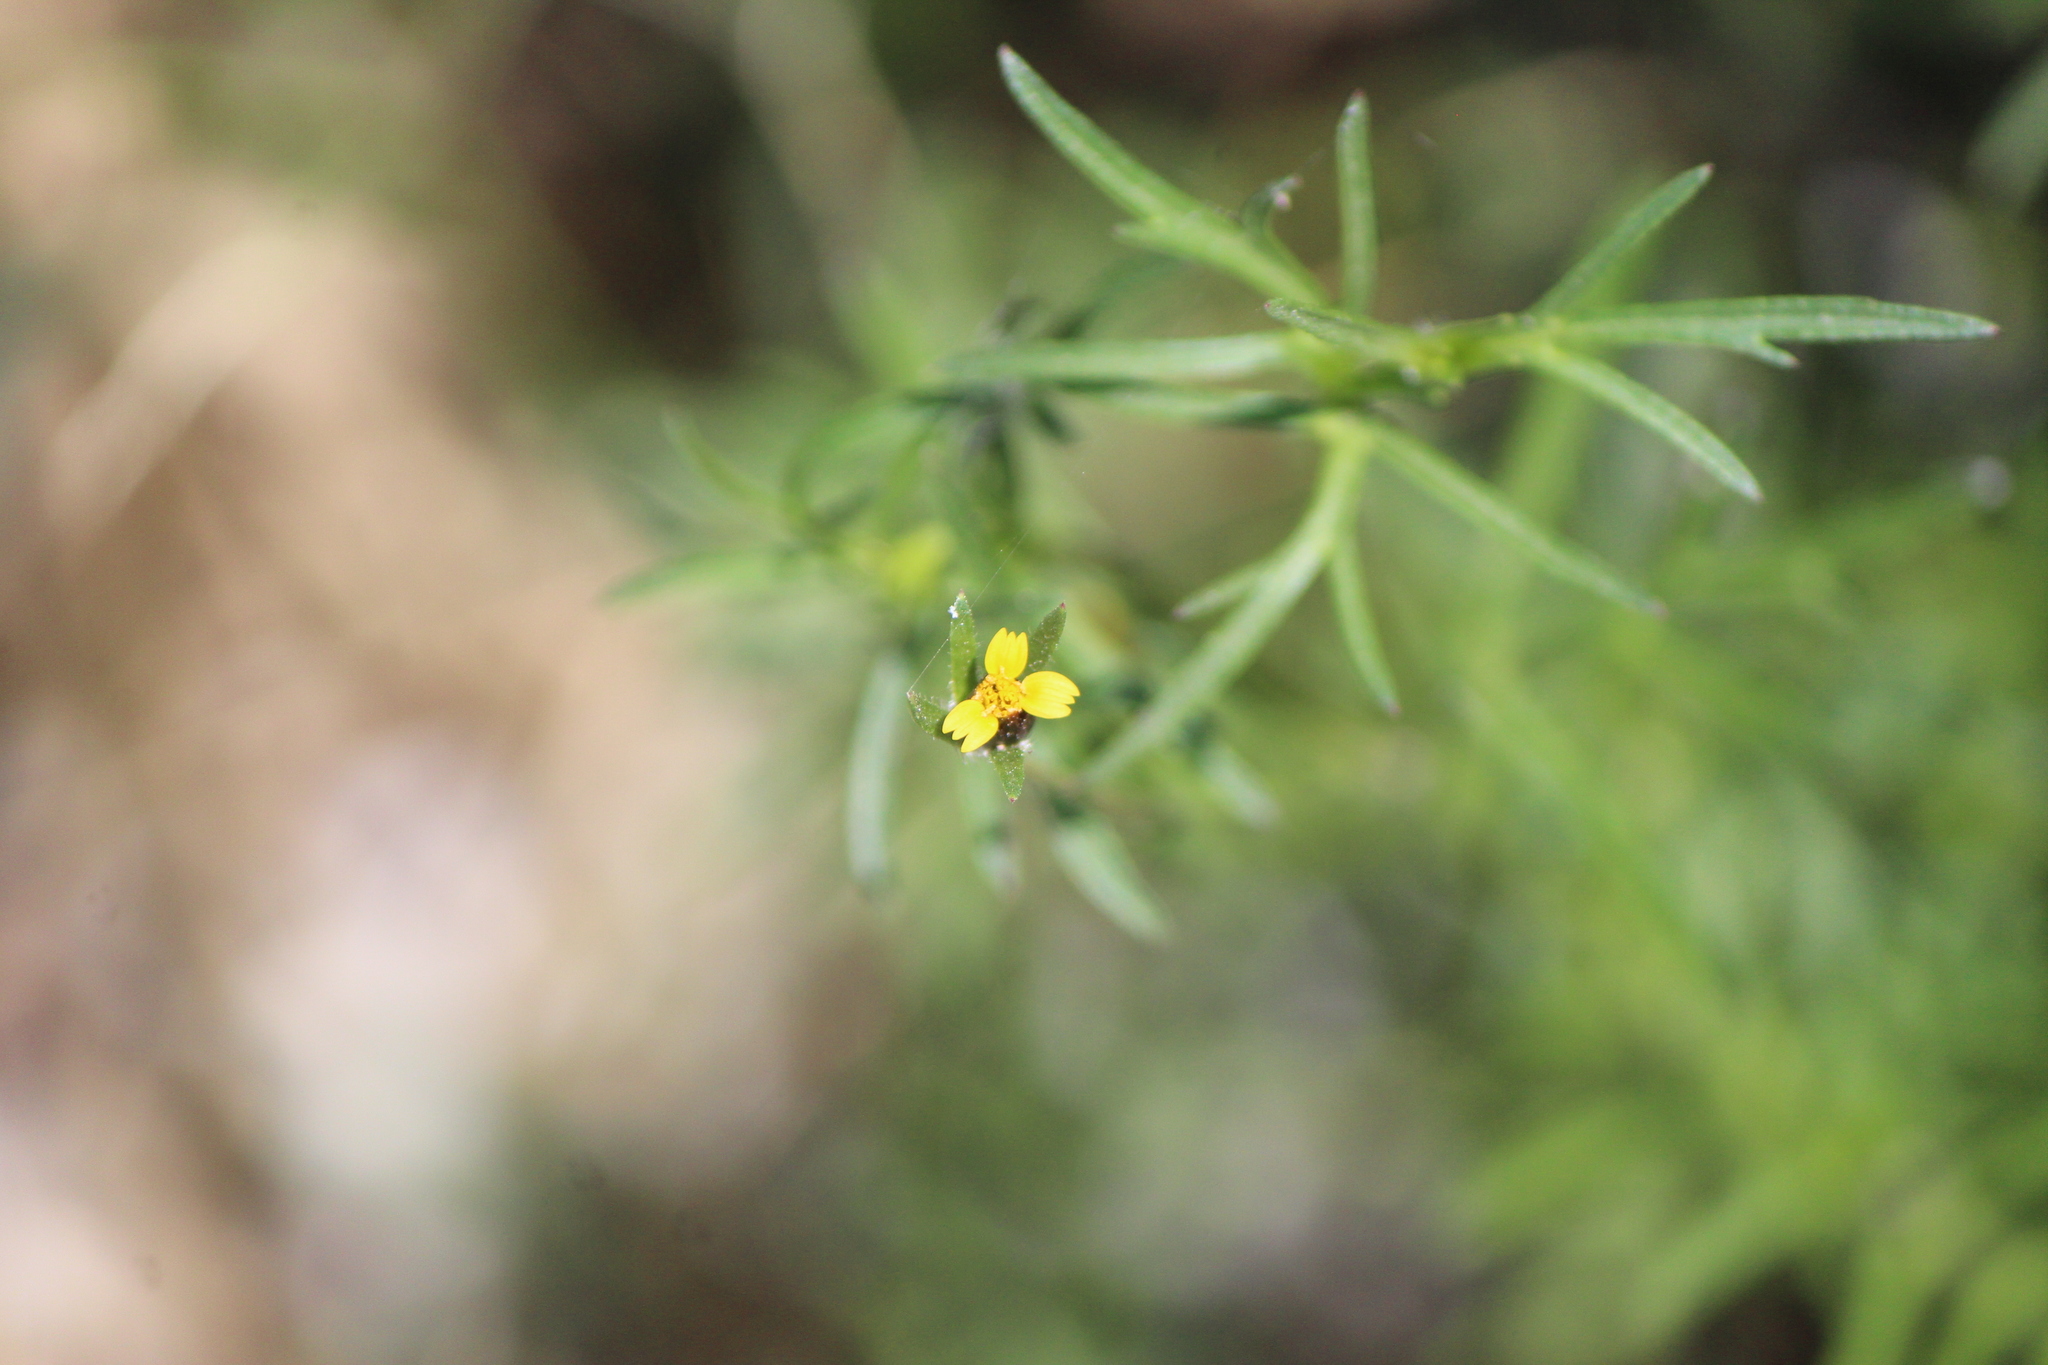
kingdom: Plantae
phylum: Tracheophyta
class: Magnoliopsida
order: Asterales
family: Asteraceae
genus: Heterosperma
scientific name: Heterosperma pinnatum
